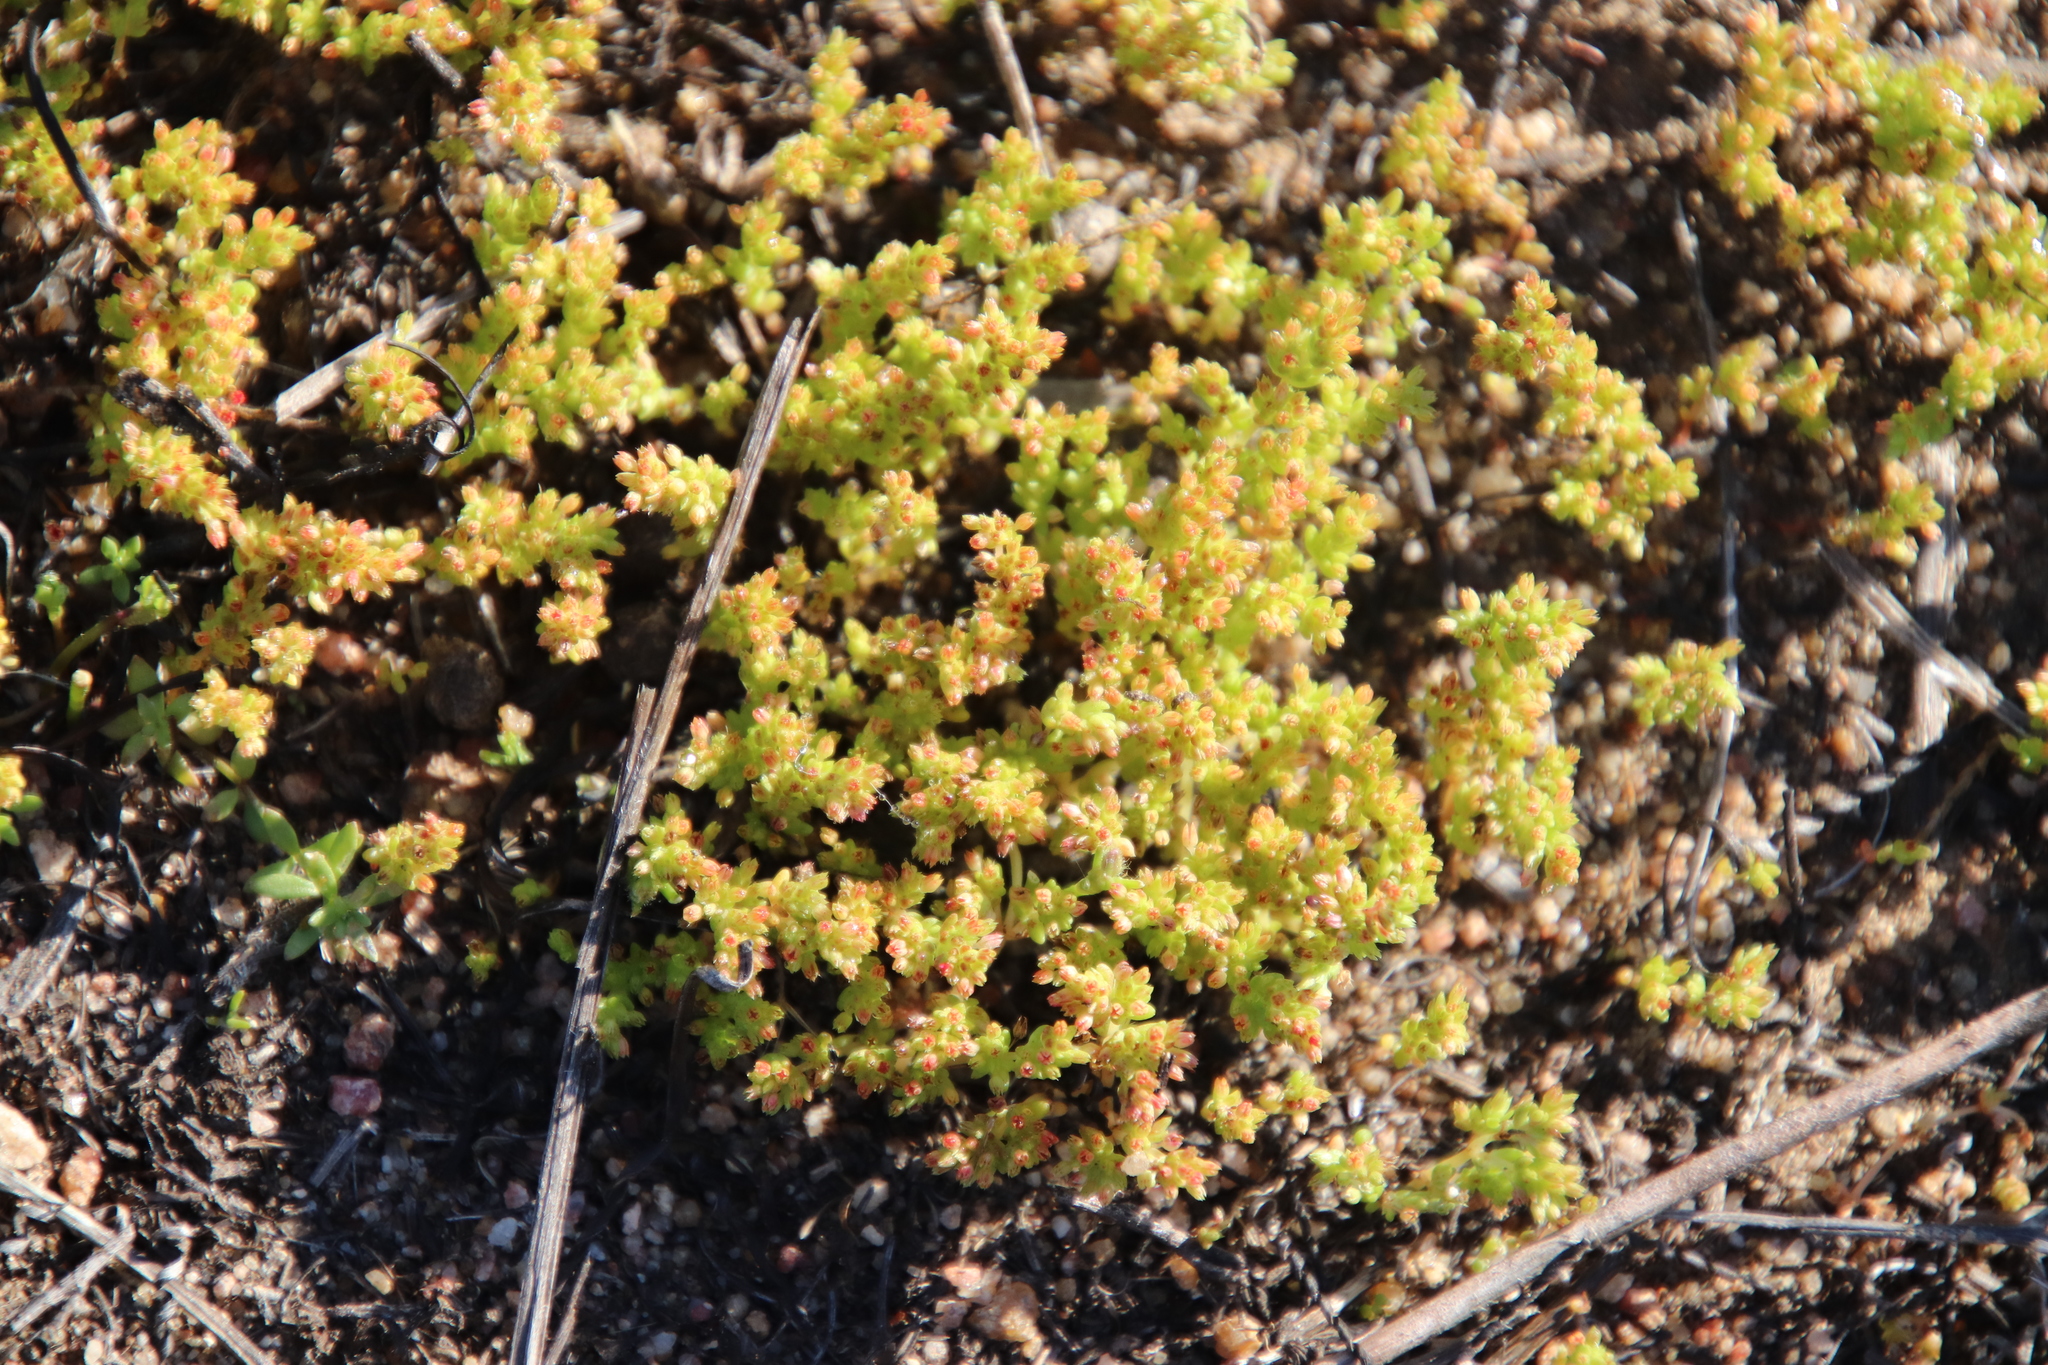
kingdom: Plantae
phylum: Tracheophyta
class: Magnoliopsida
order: Saxifragales
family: Crassulaceae
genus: Crassula
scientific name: Crassula connata
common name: Erect pygmyweed
